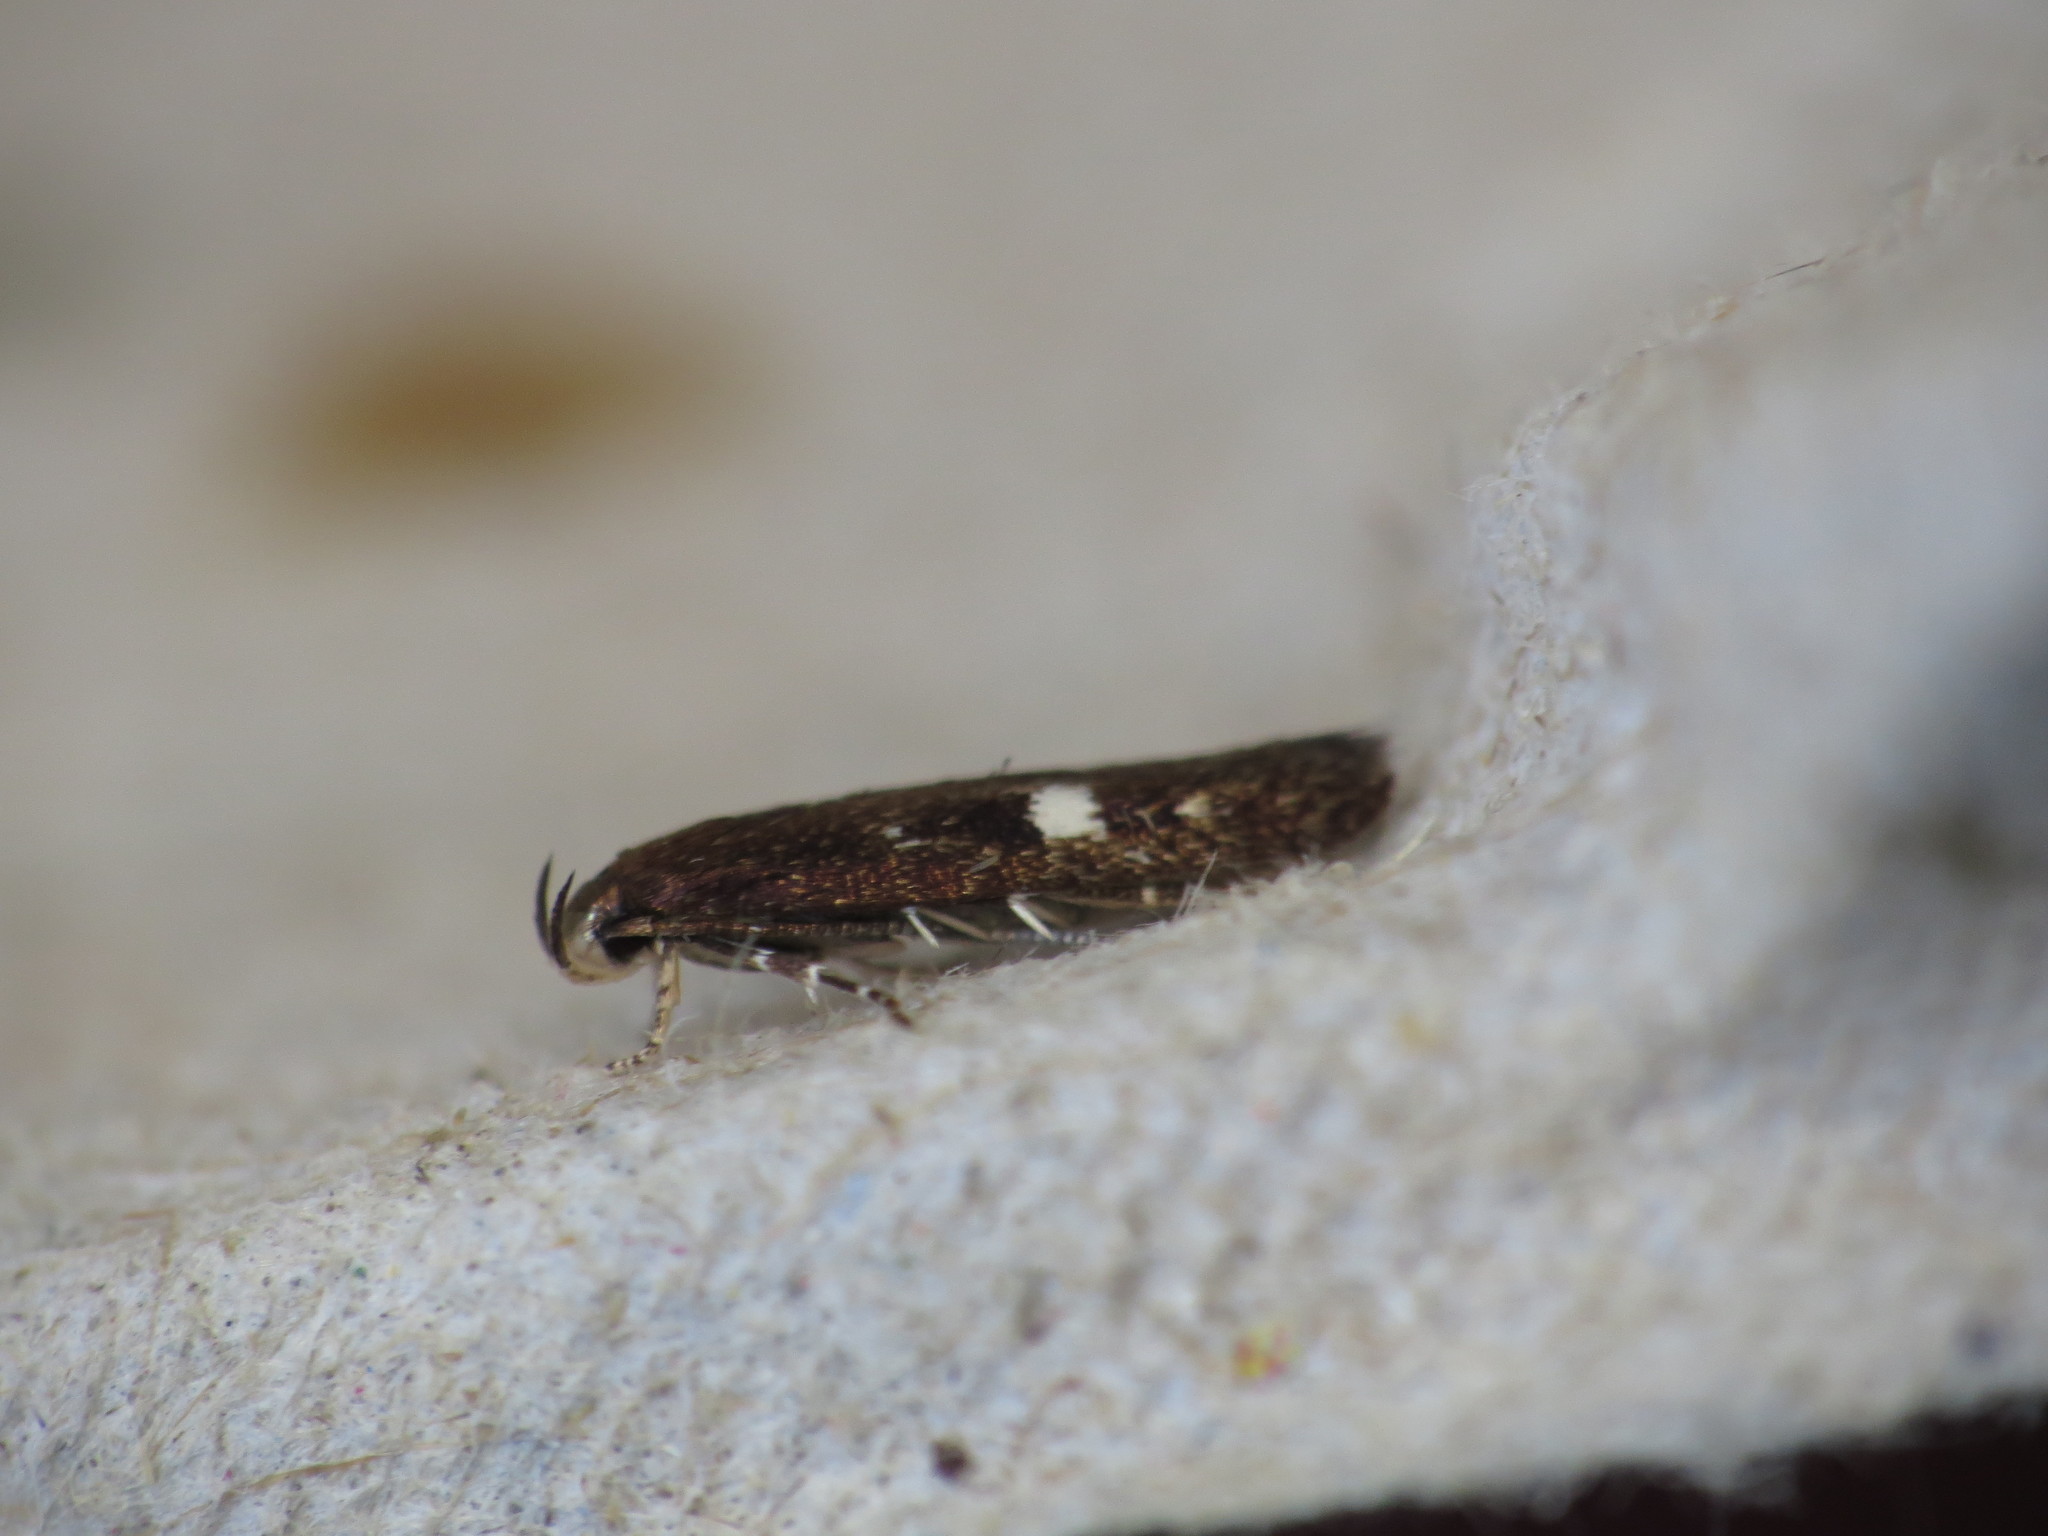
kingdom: Animalia
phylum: Arthropoda
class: Insecta
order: Lepidoptera
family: Momphidae
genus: Mompha
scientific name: Mompha langiella
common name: Clouded cosmet
